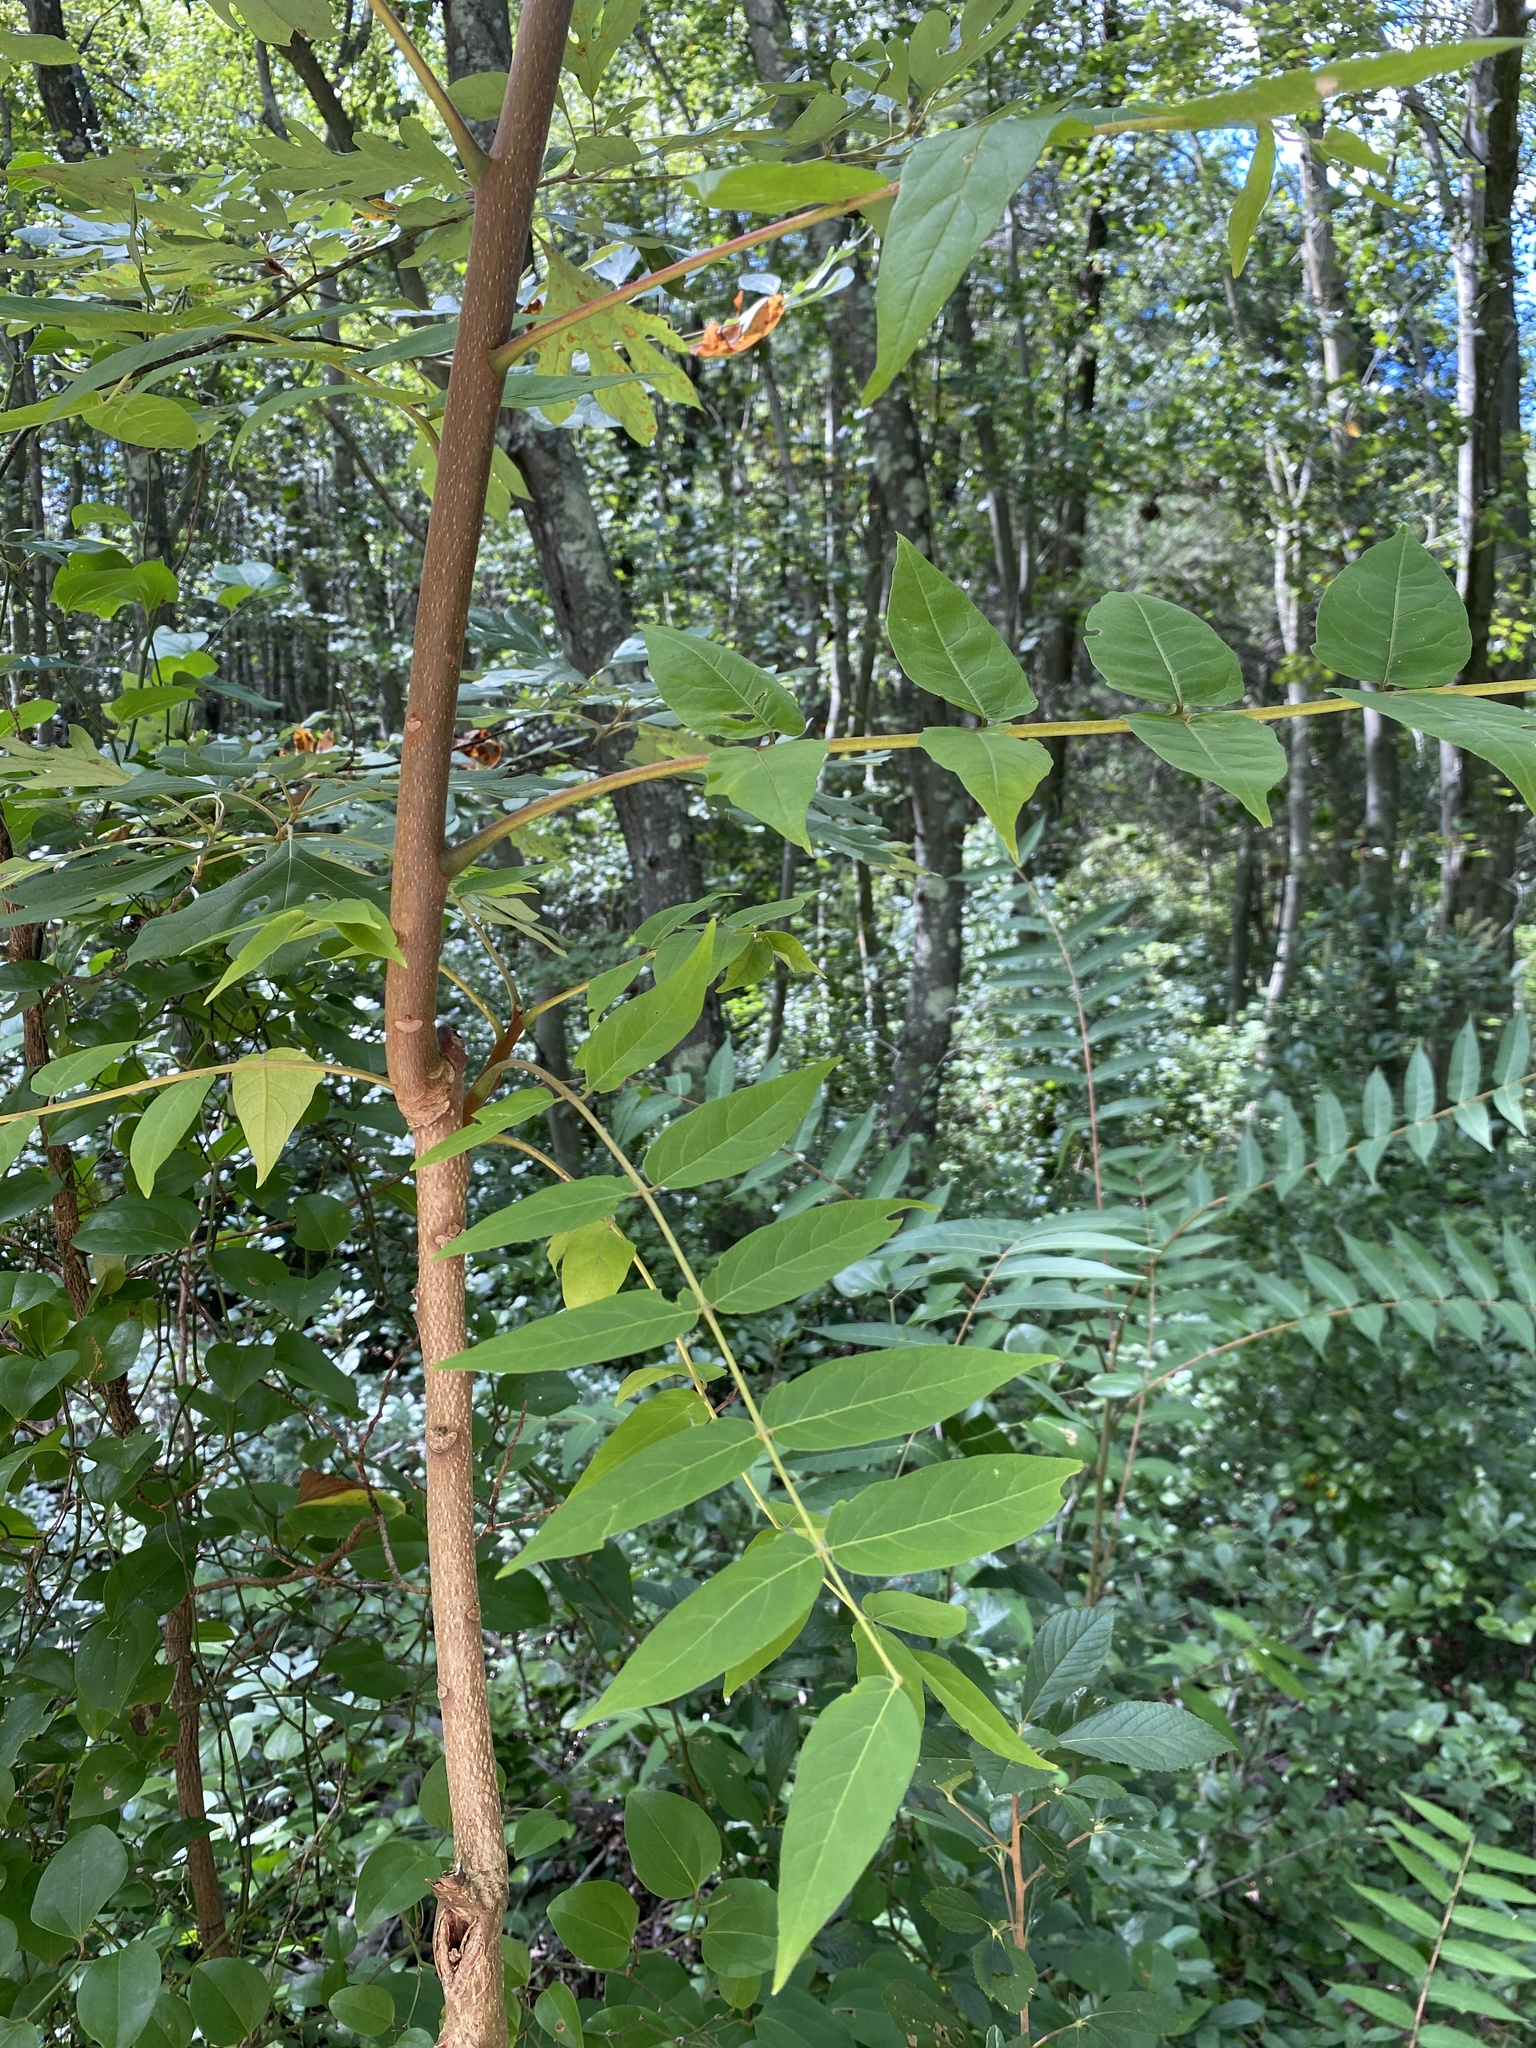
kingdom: Plantae
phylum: Tracheophyta
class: Magnoliopsida
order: Sapindales
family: Simaroubaceae
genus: Ailanthus
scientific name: Ailanthus altissima
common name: Tree-of-heaven
